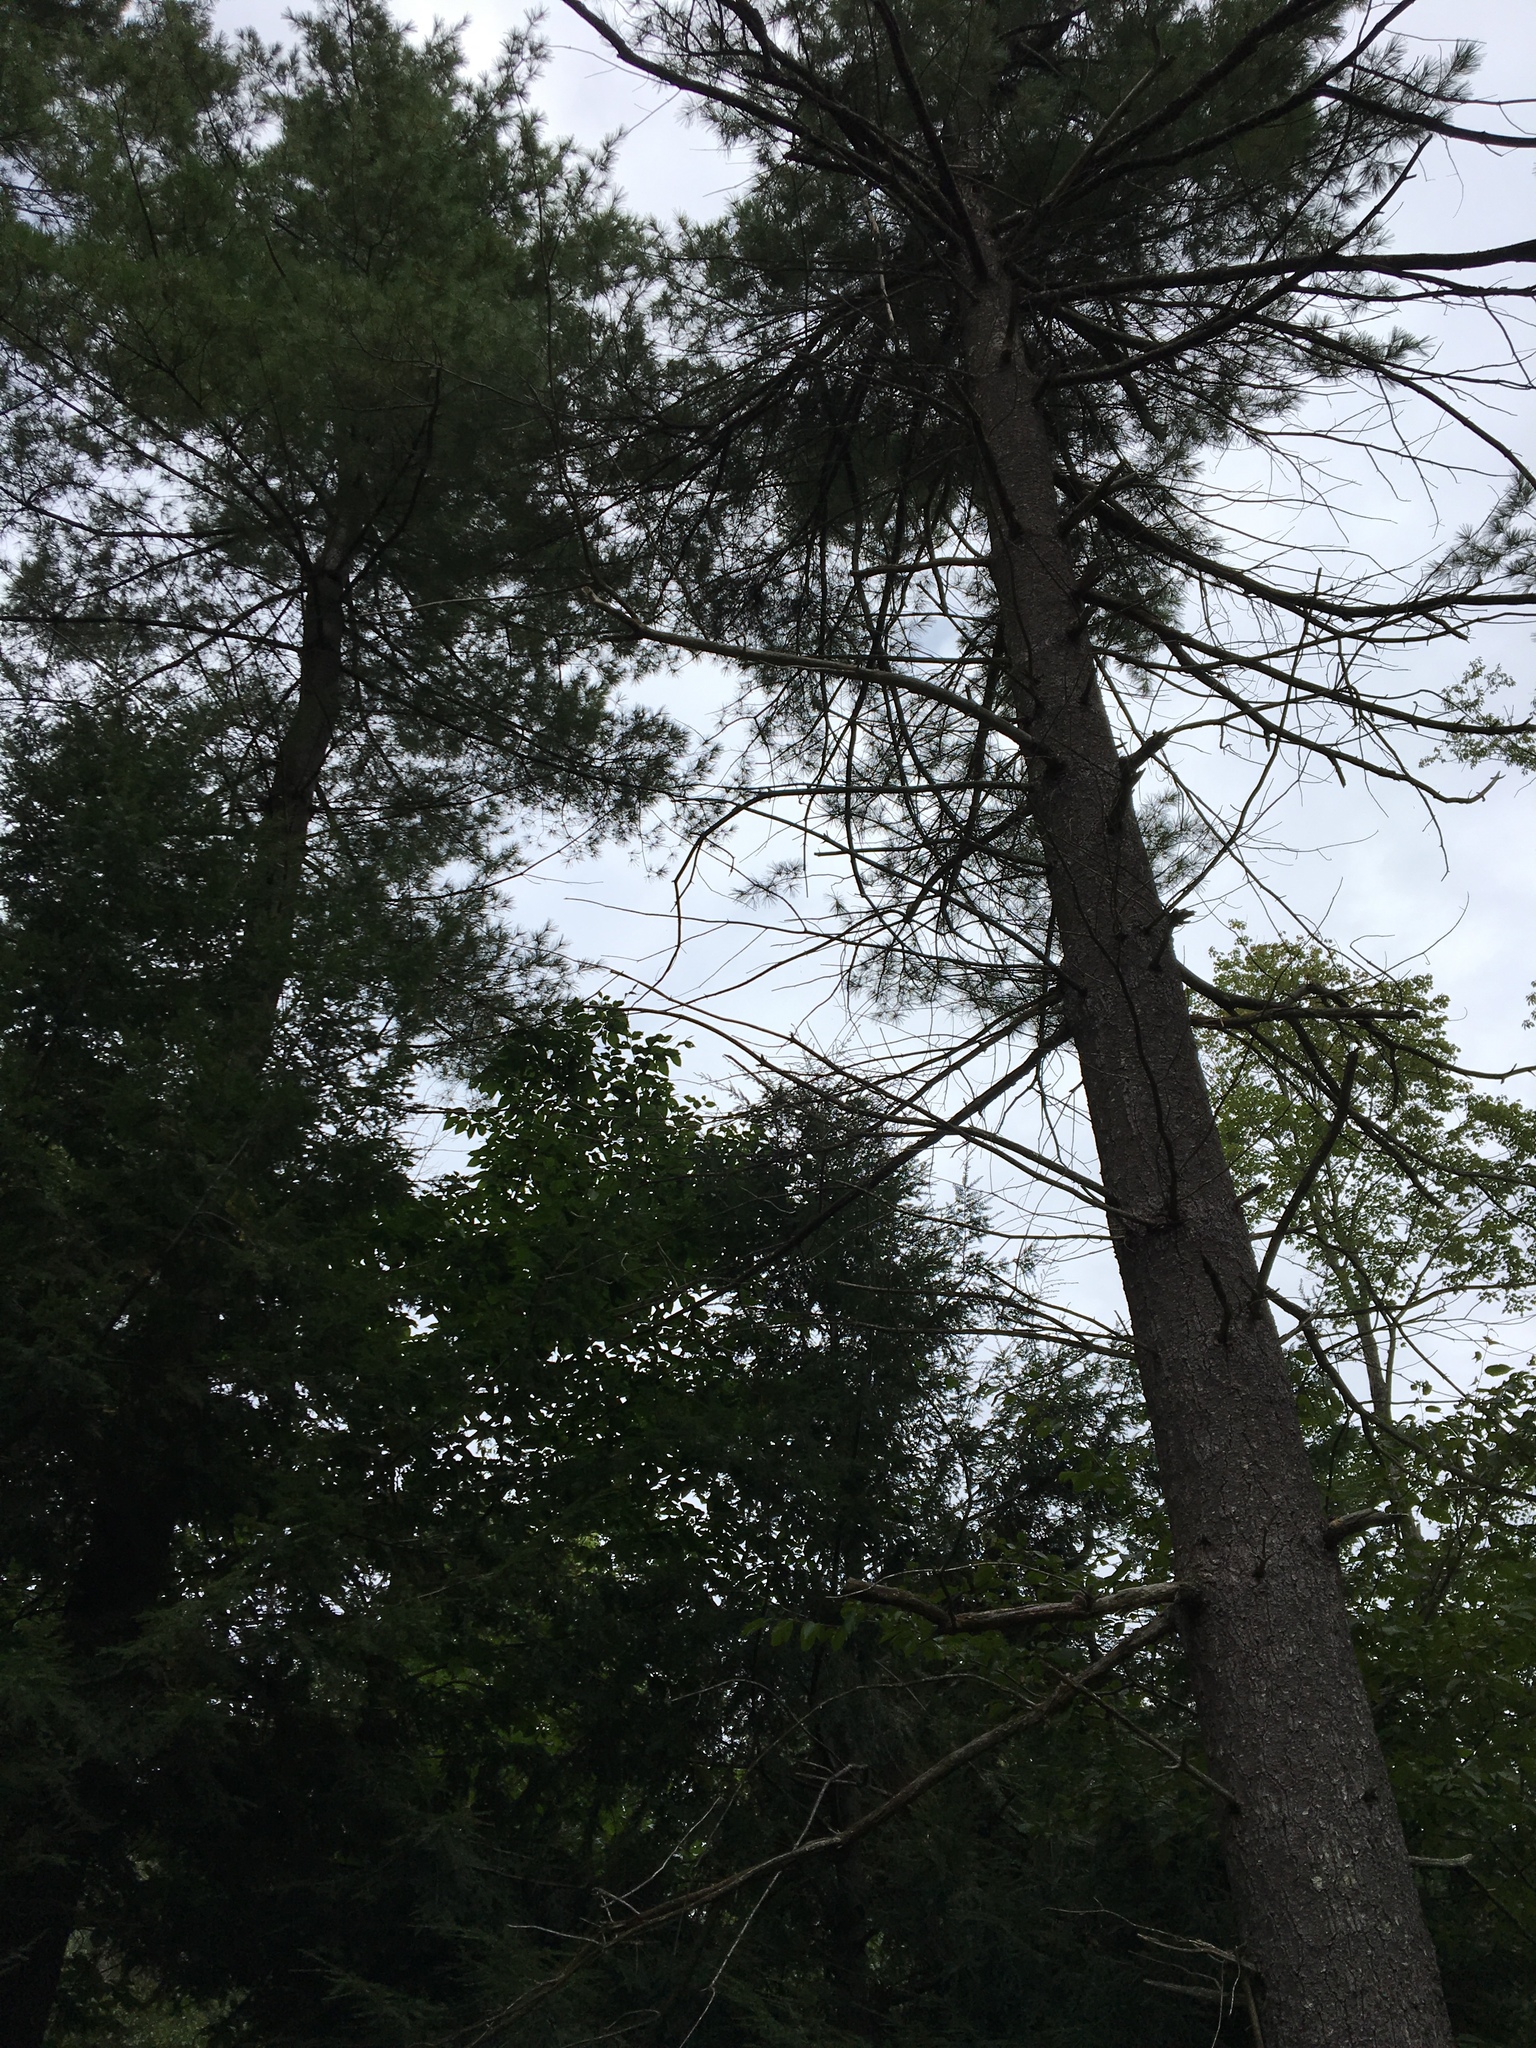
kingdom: Plantae
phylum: Tracheophyta
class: Pinopsida
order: Pinales
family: Pinaceae
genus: Pinus
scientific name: Pinus strobus
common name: Weymouth pine
